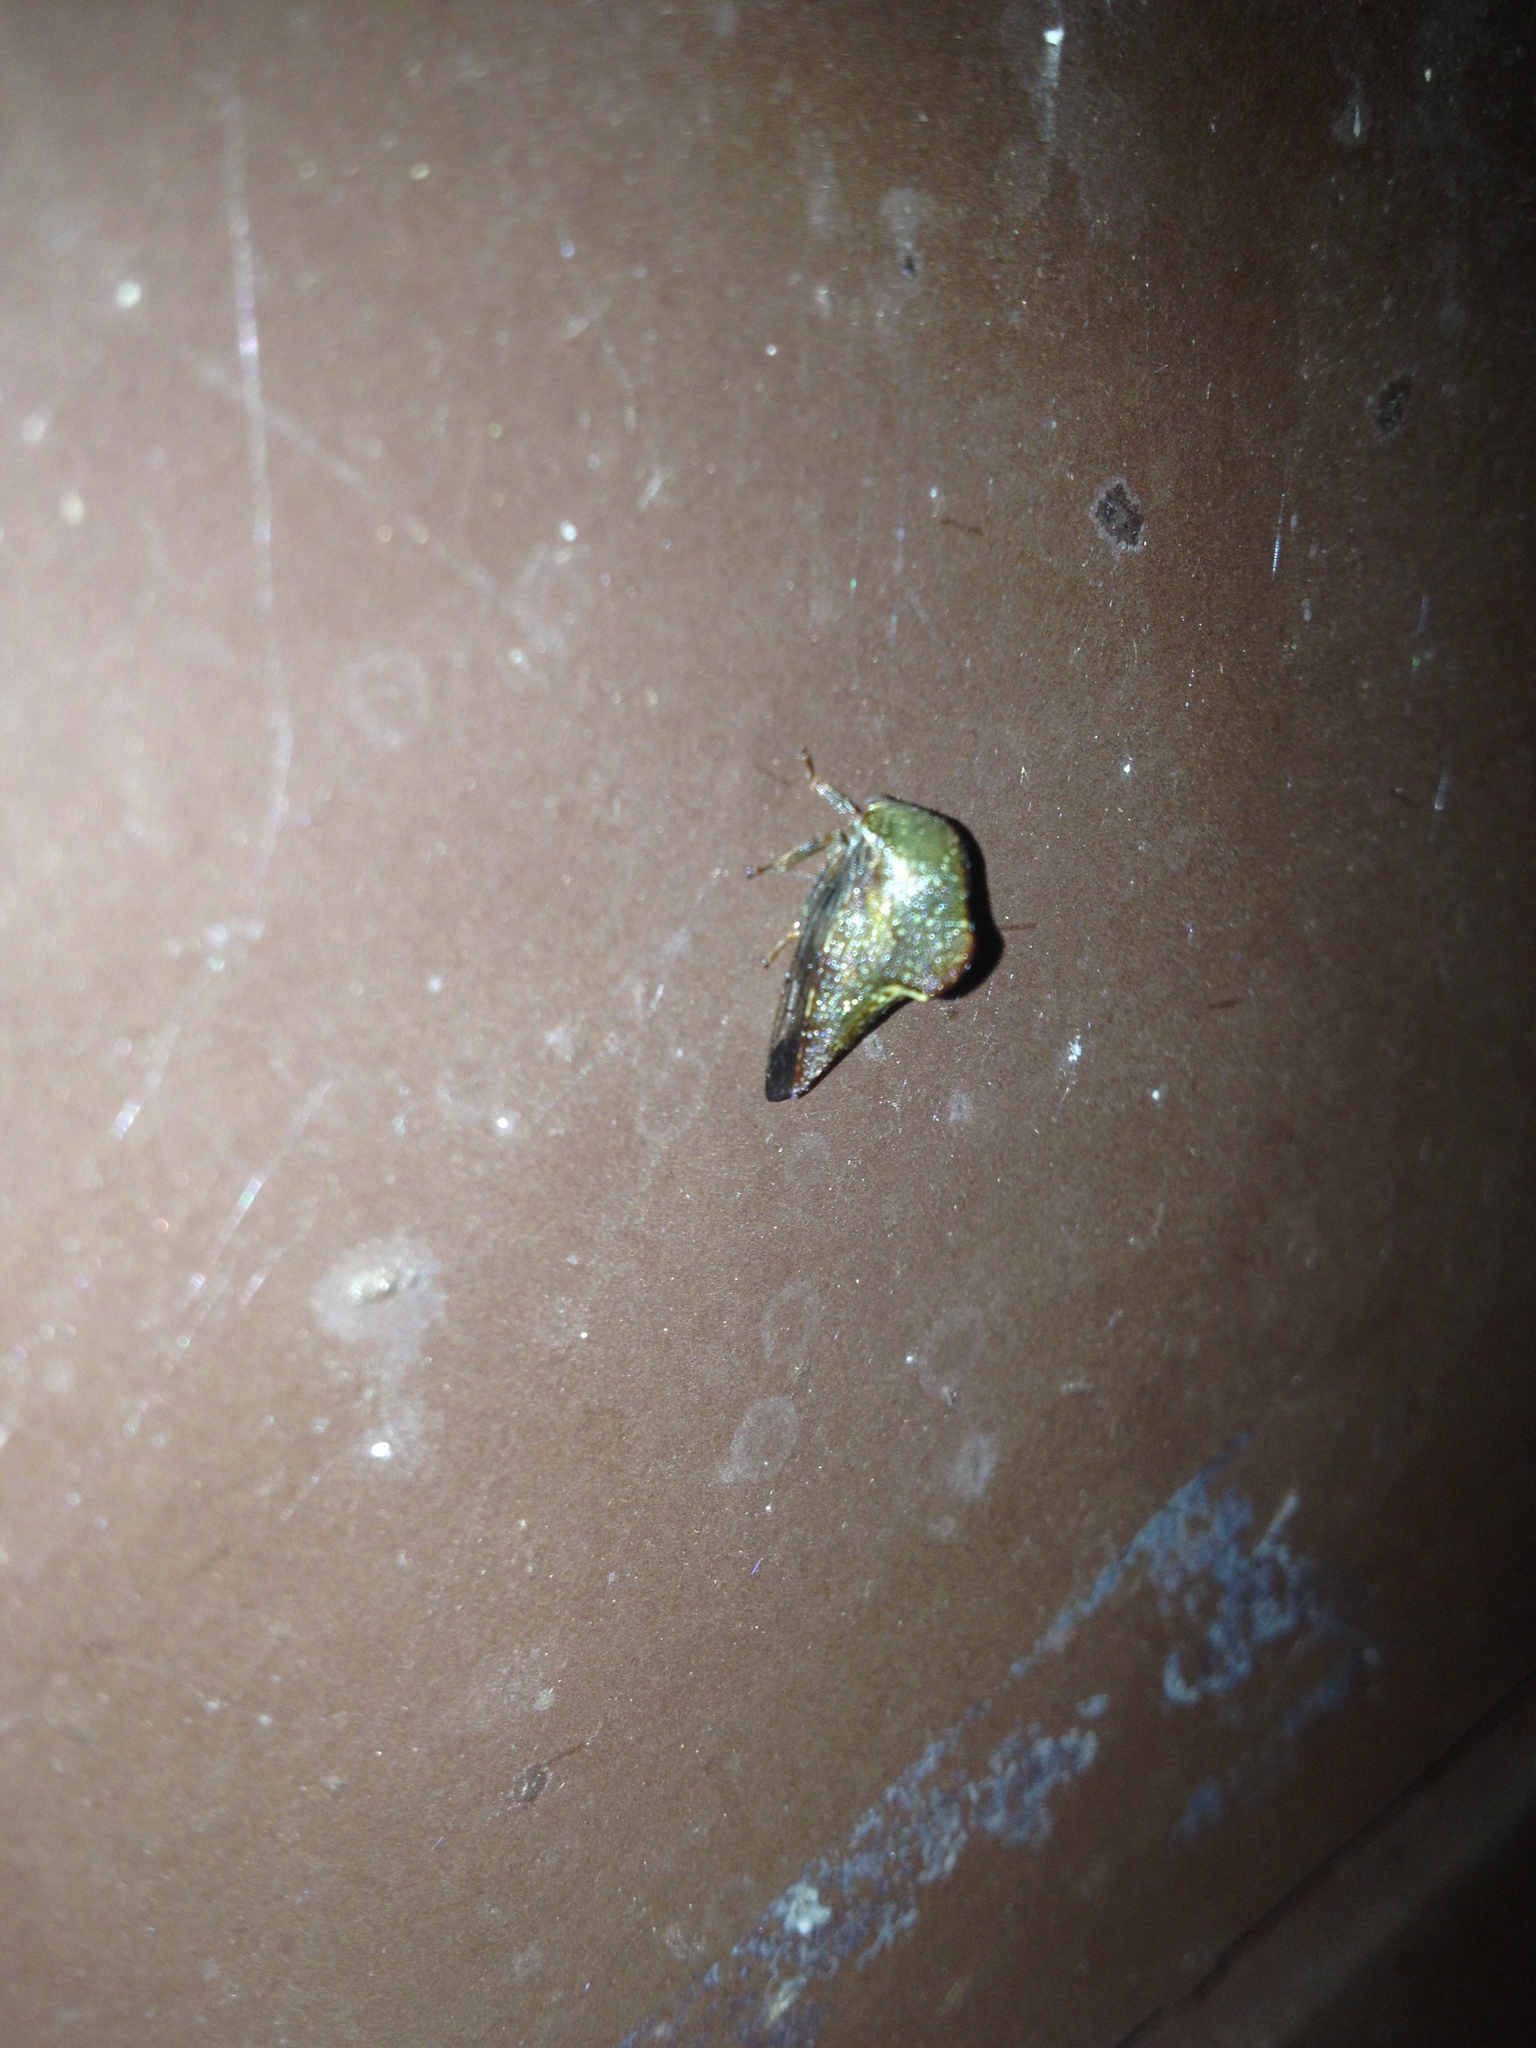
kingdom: Animalia
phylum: Arthropoda
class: Insecta
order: Hemiptera
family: Membracidae
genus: Telamona
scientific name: Telamona monticola
